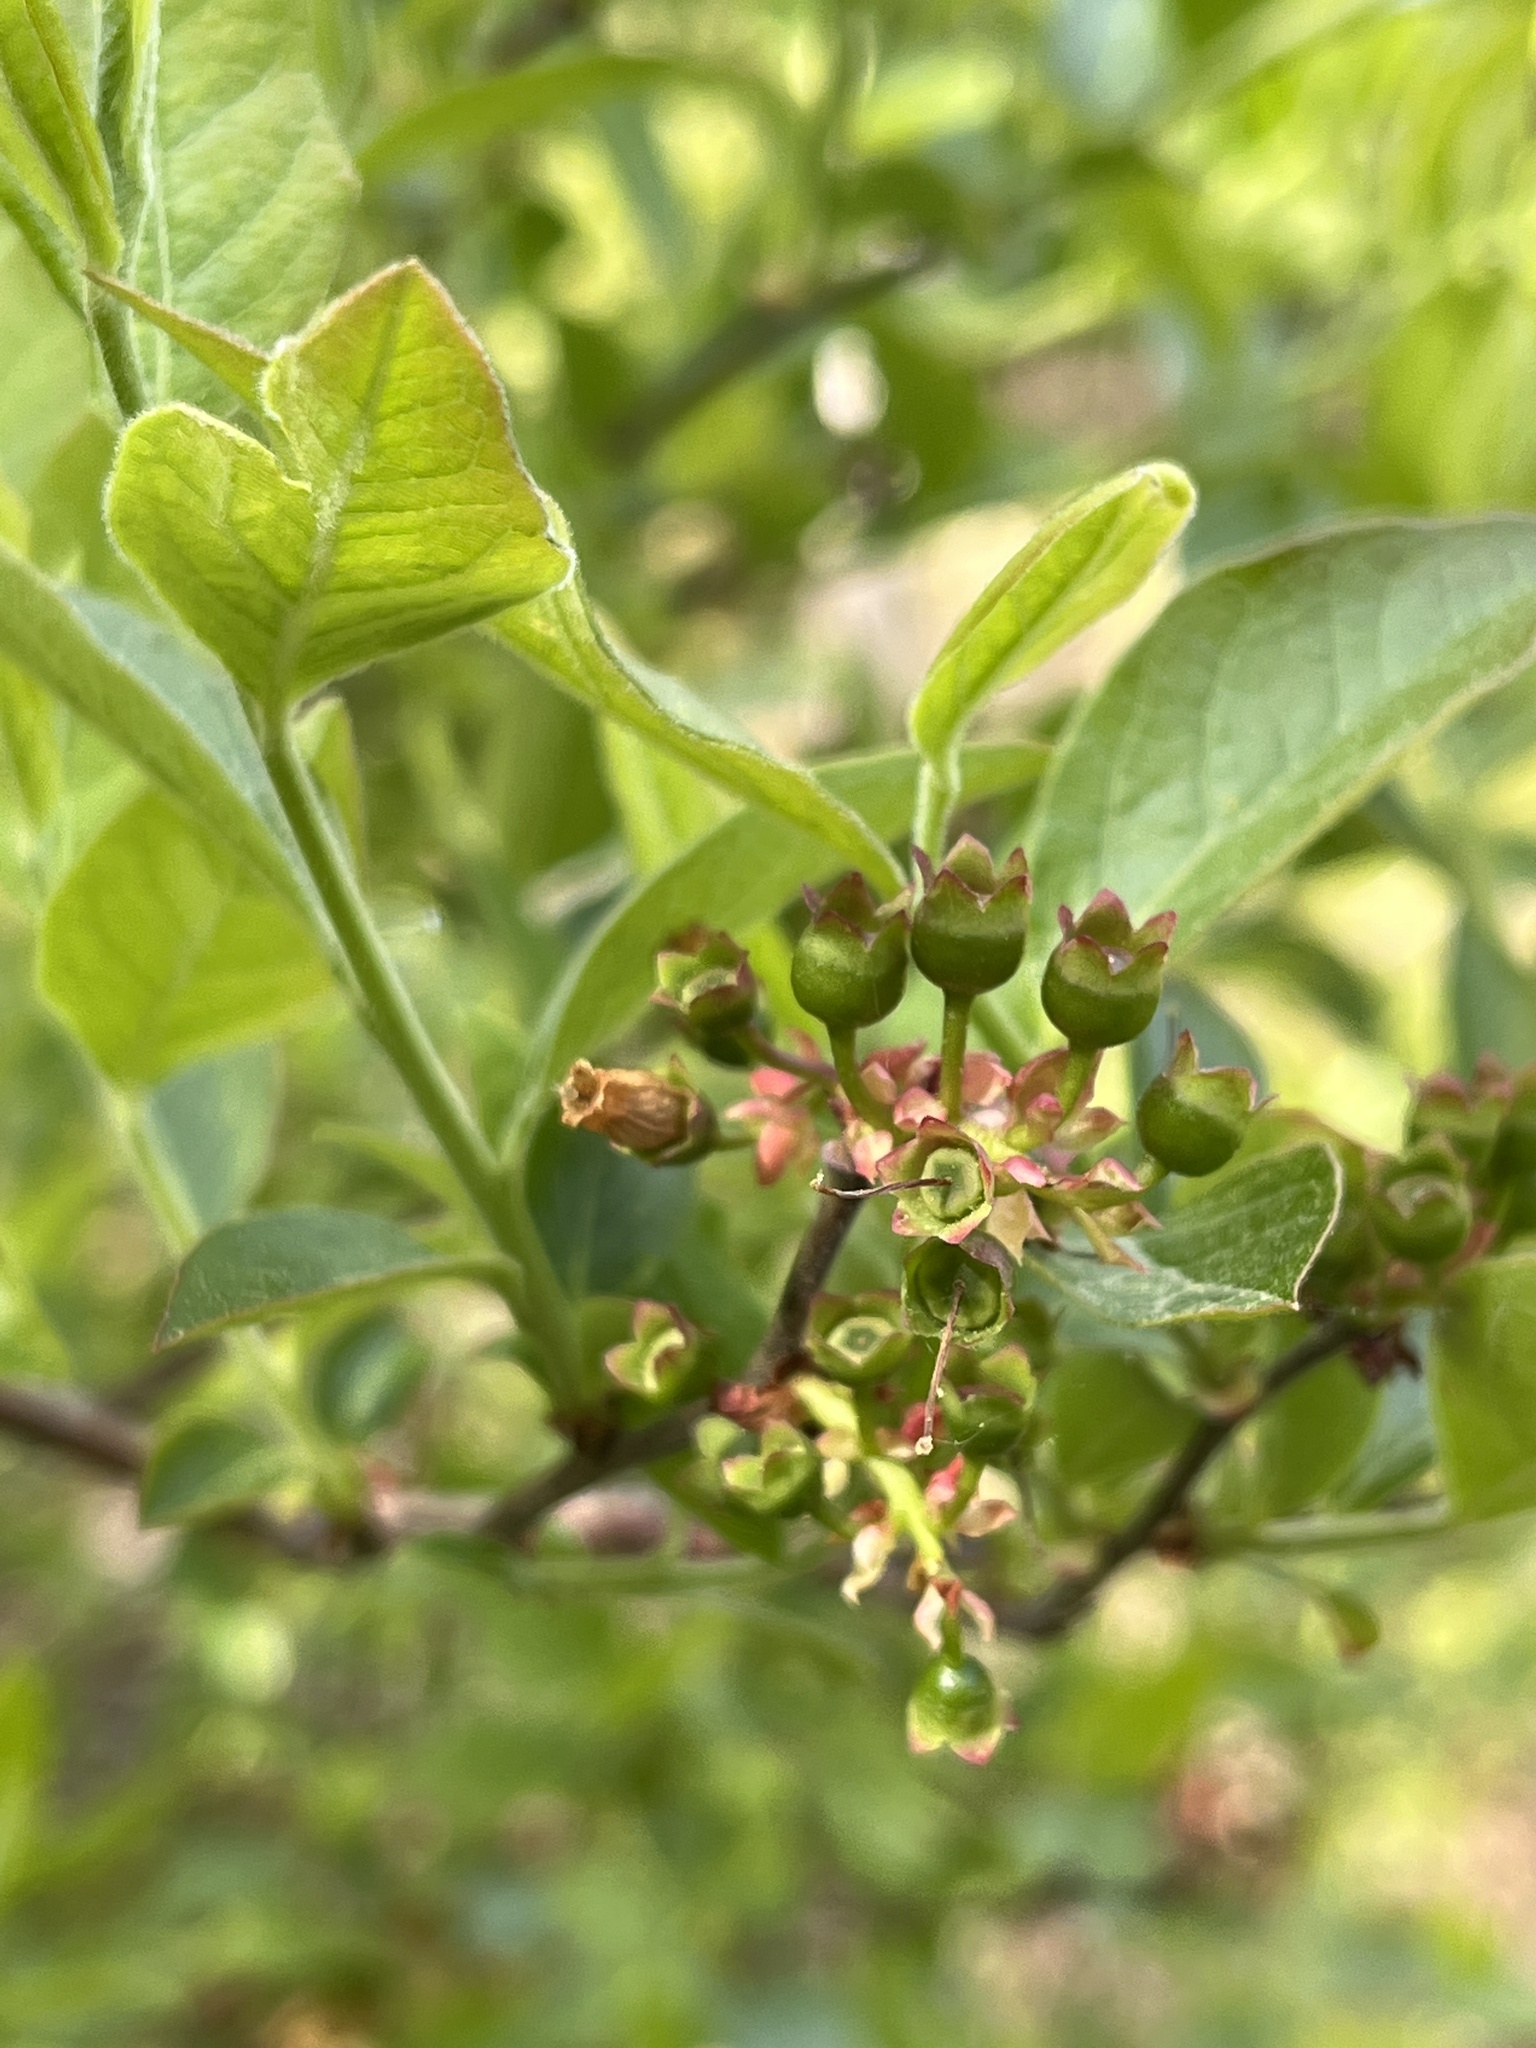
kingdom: Plantae
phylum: Tracheophyta
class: Magnoliopsida
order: Ericales
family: Ericaceae
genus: Vaccinium
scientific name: Vaccinium corymbosum
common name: Blueberry
